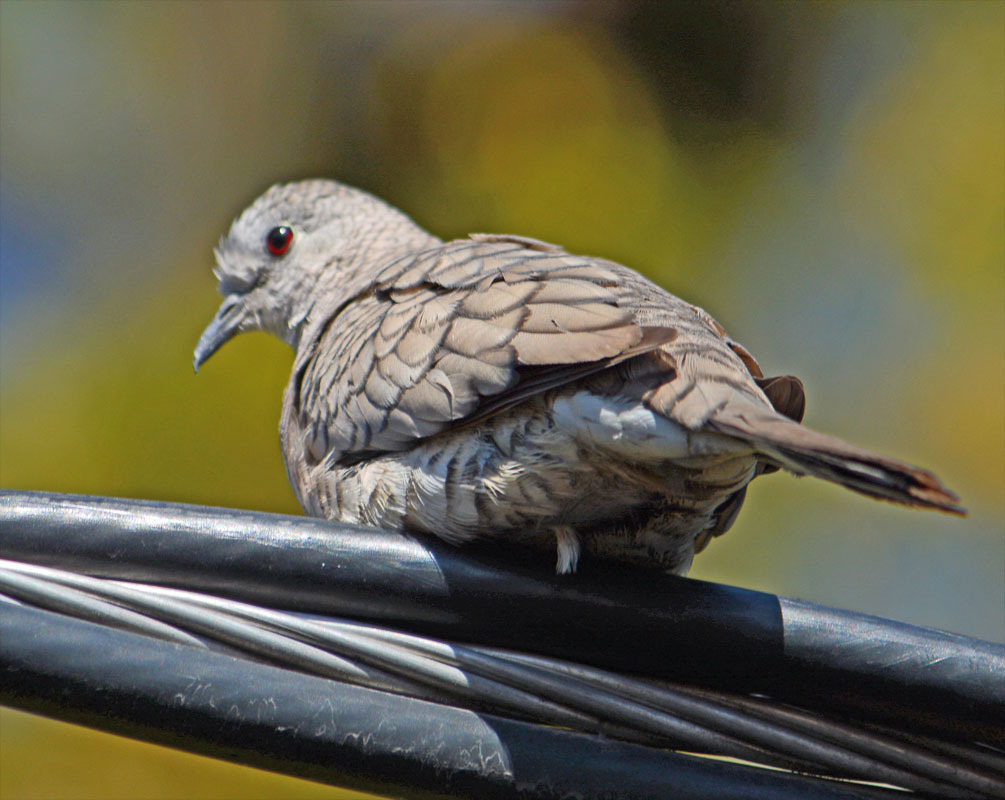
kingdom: Animalia
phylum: Chordata
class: Aves
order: Columbiformes
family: Columbidae
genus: Columbina
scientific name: Columbina inca
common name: Inca dove
